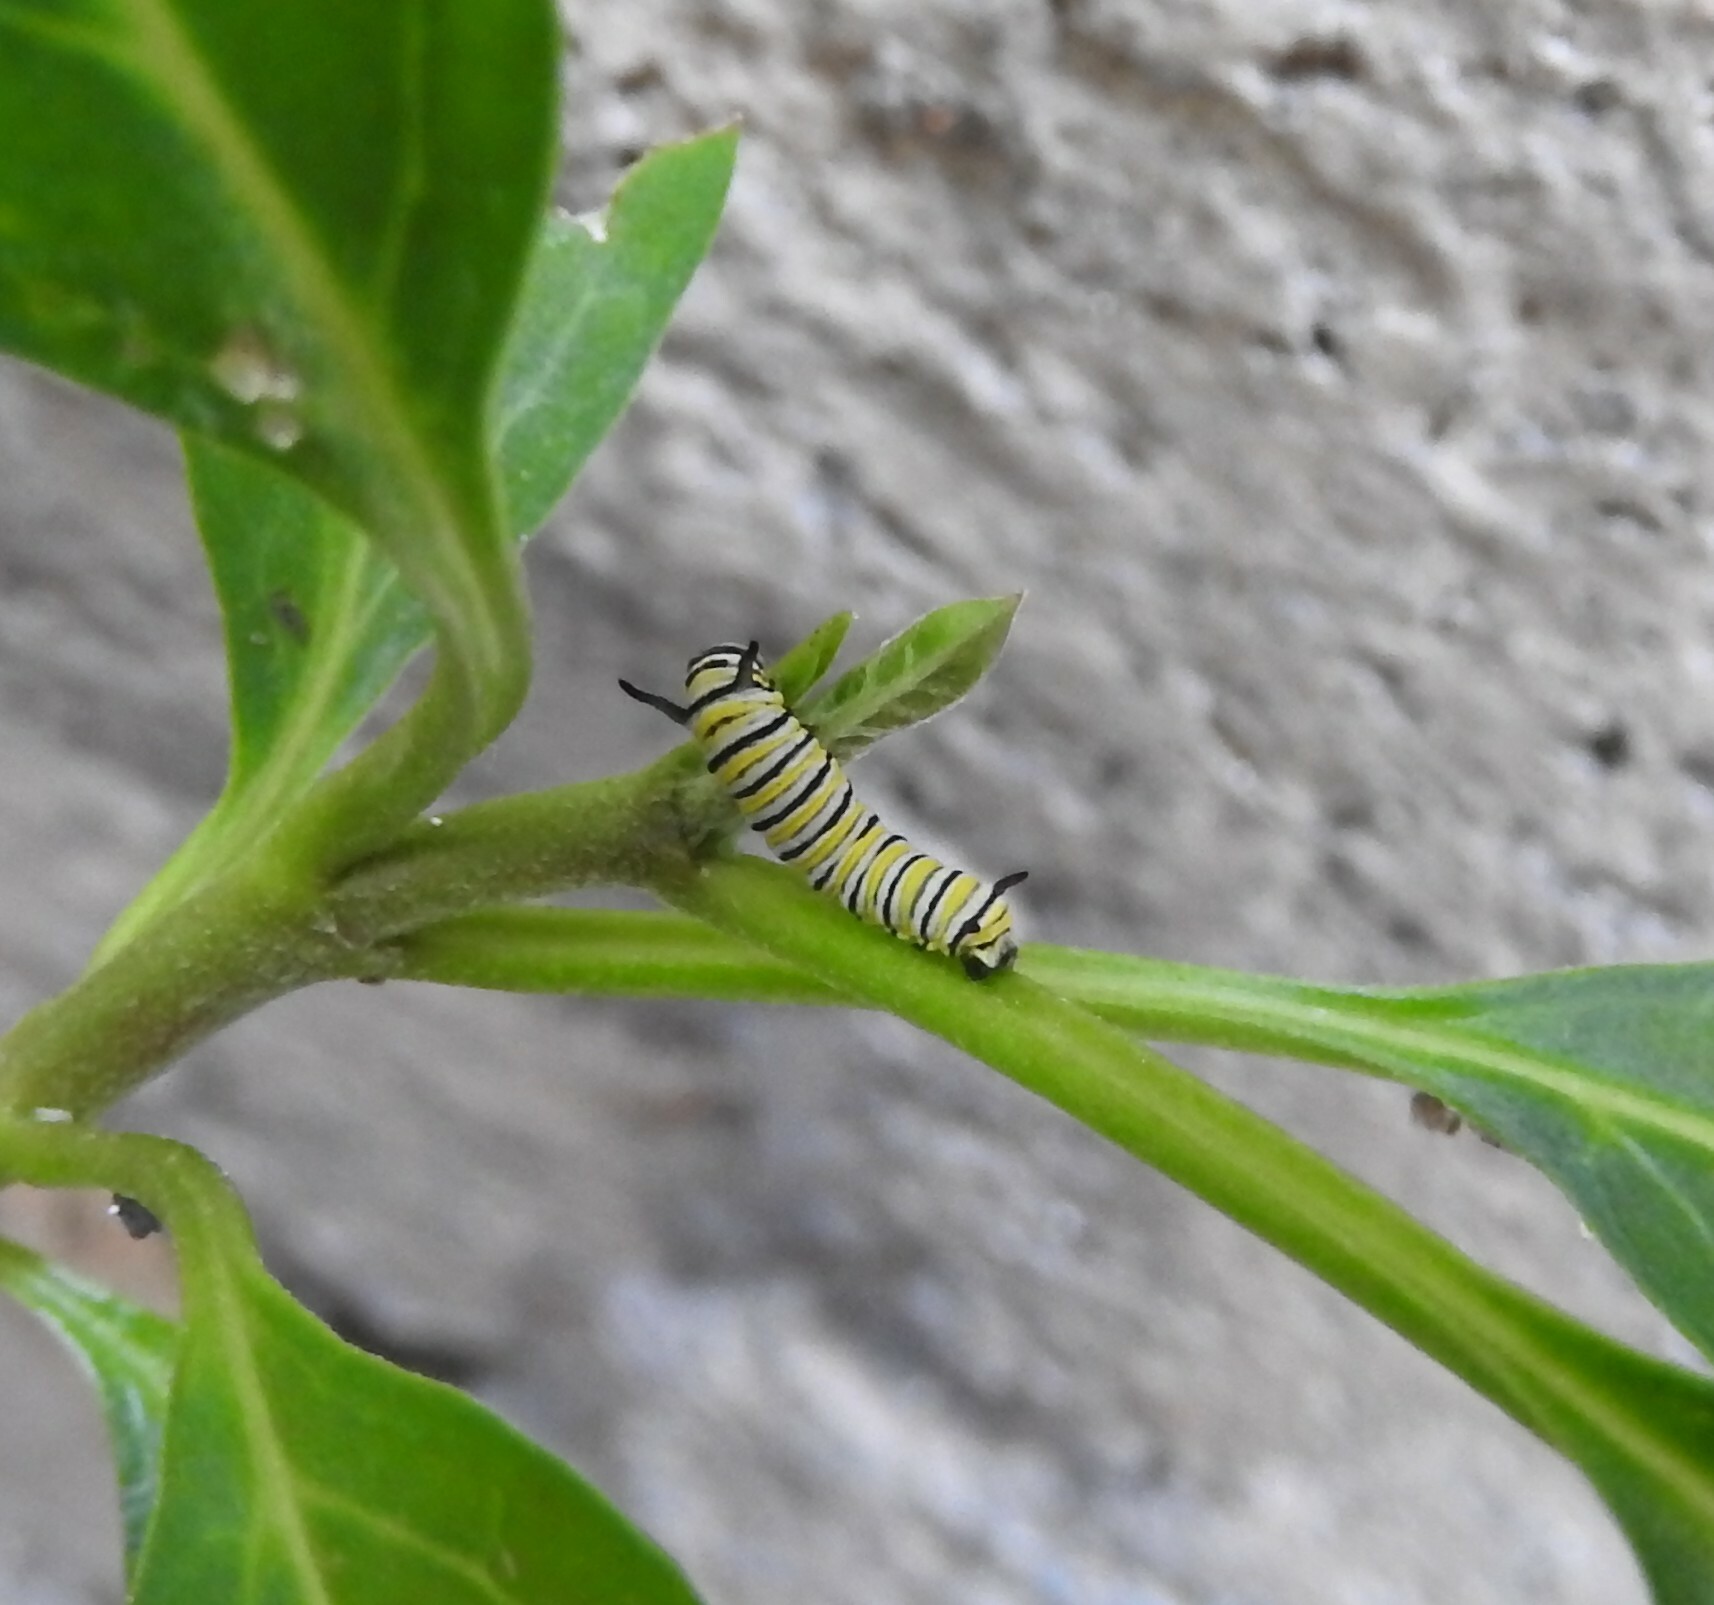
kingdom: Animalia
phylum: Arthropoda
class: Insecta
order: Lepidoptera
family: Nymphalidae
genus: Danaus
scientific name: Danaus plexippus
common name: Monarch
